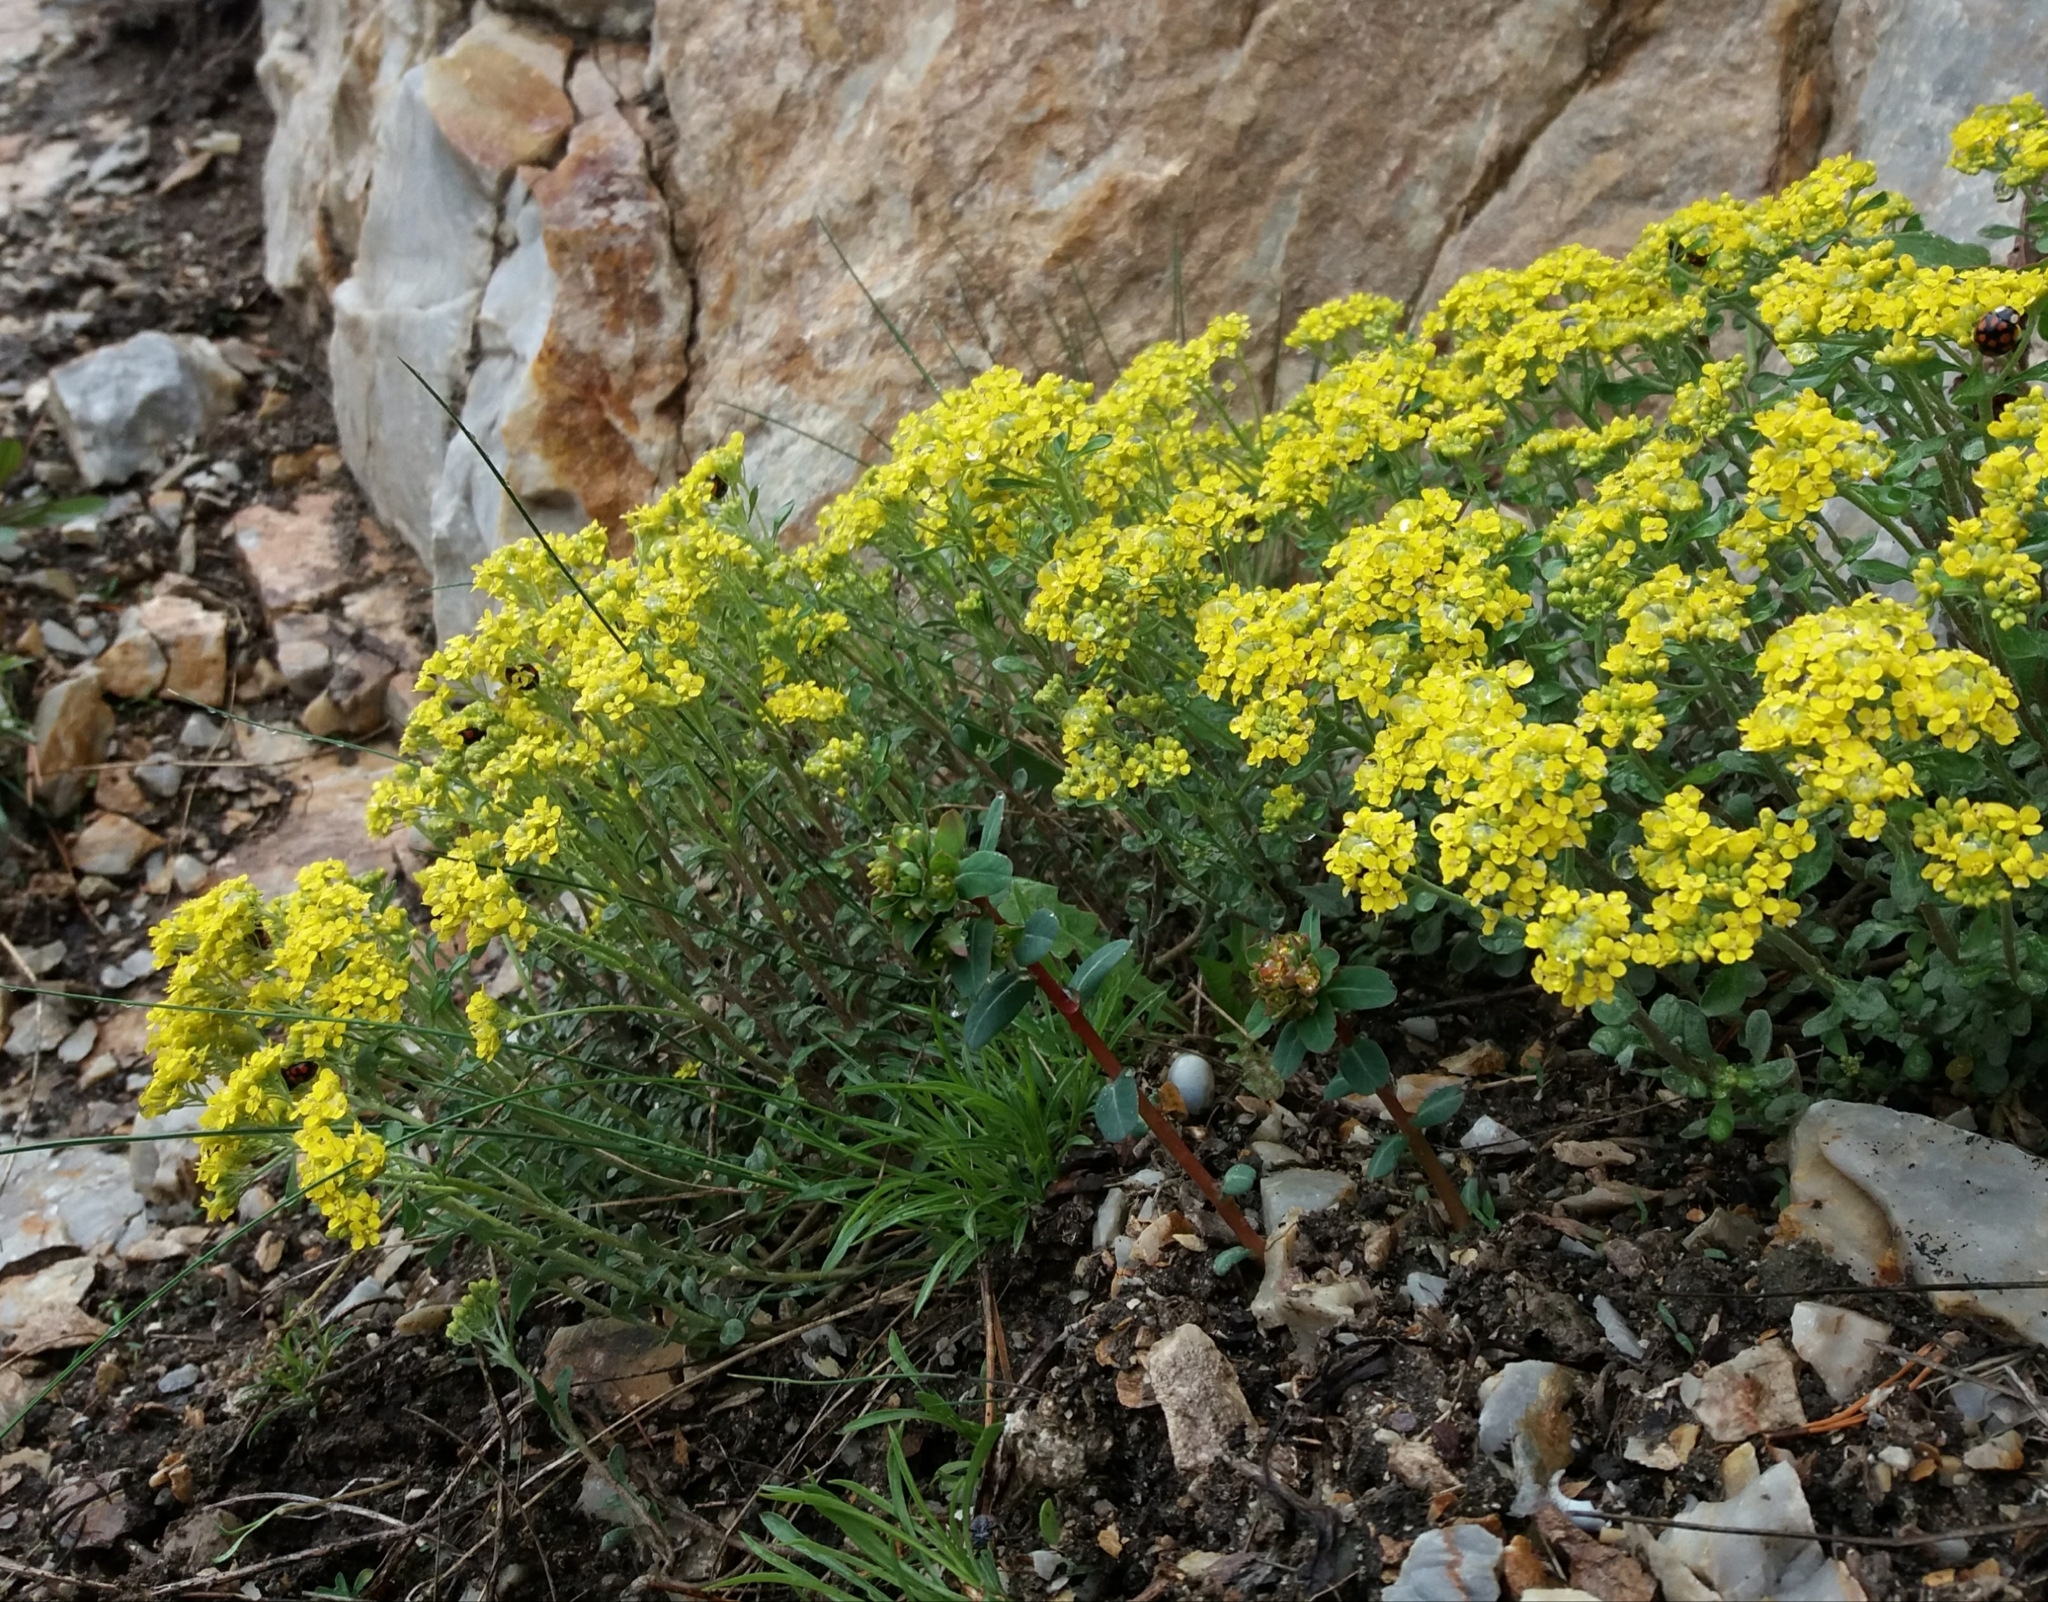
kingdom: Plantae
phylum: Tracheophyta
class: Magnoliopsida
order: Brassicales
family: Brassicaceae
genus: Odontarrhena
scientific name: Odontarrhena obovata
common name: American alyssum
